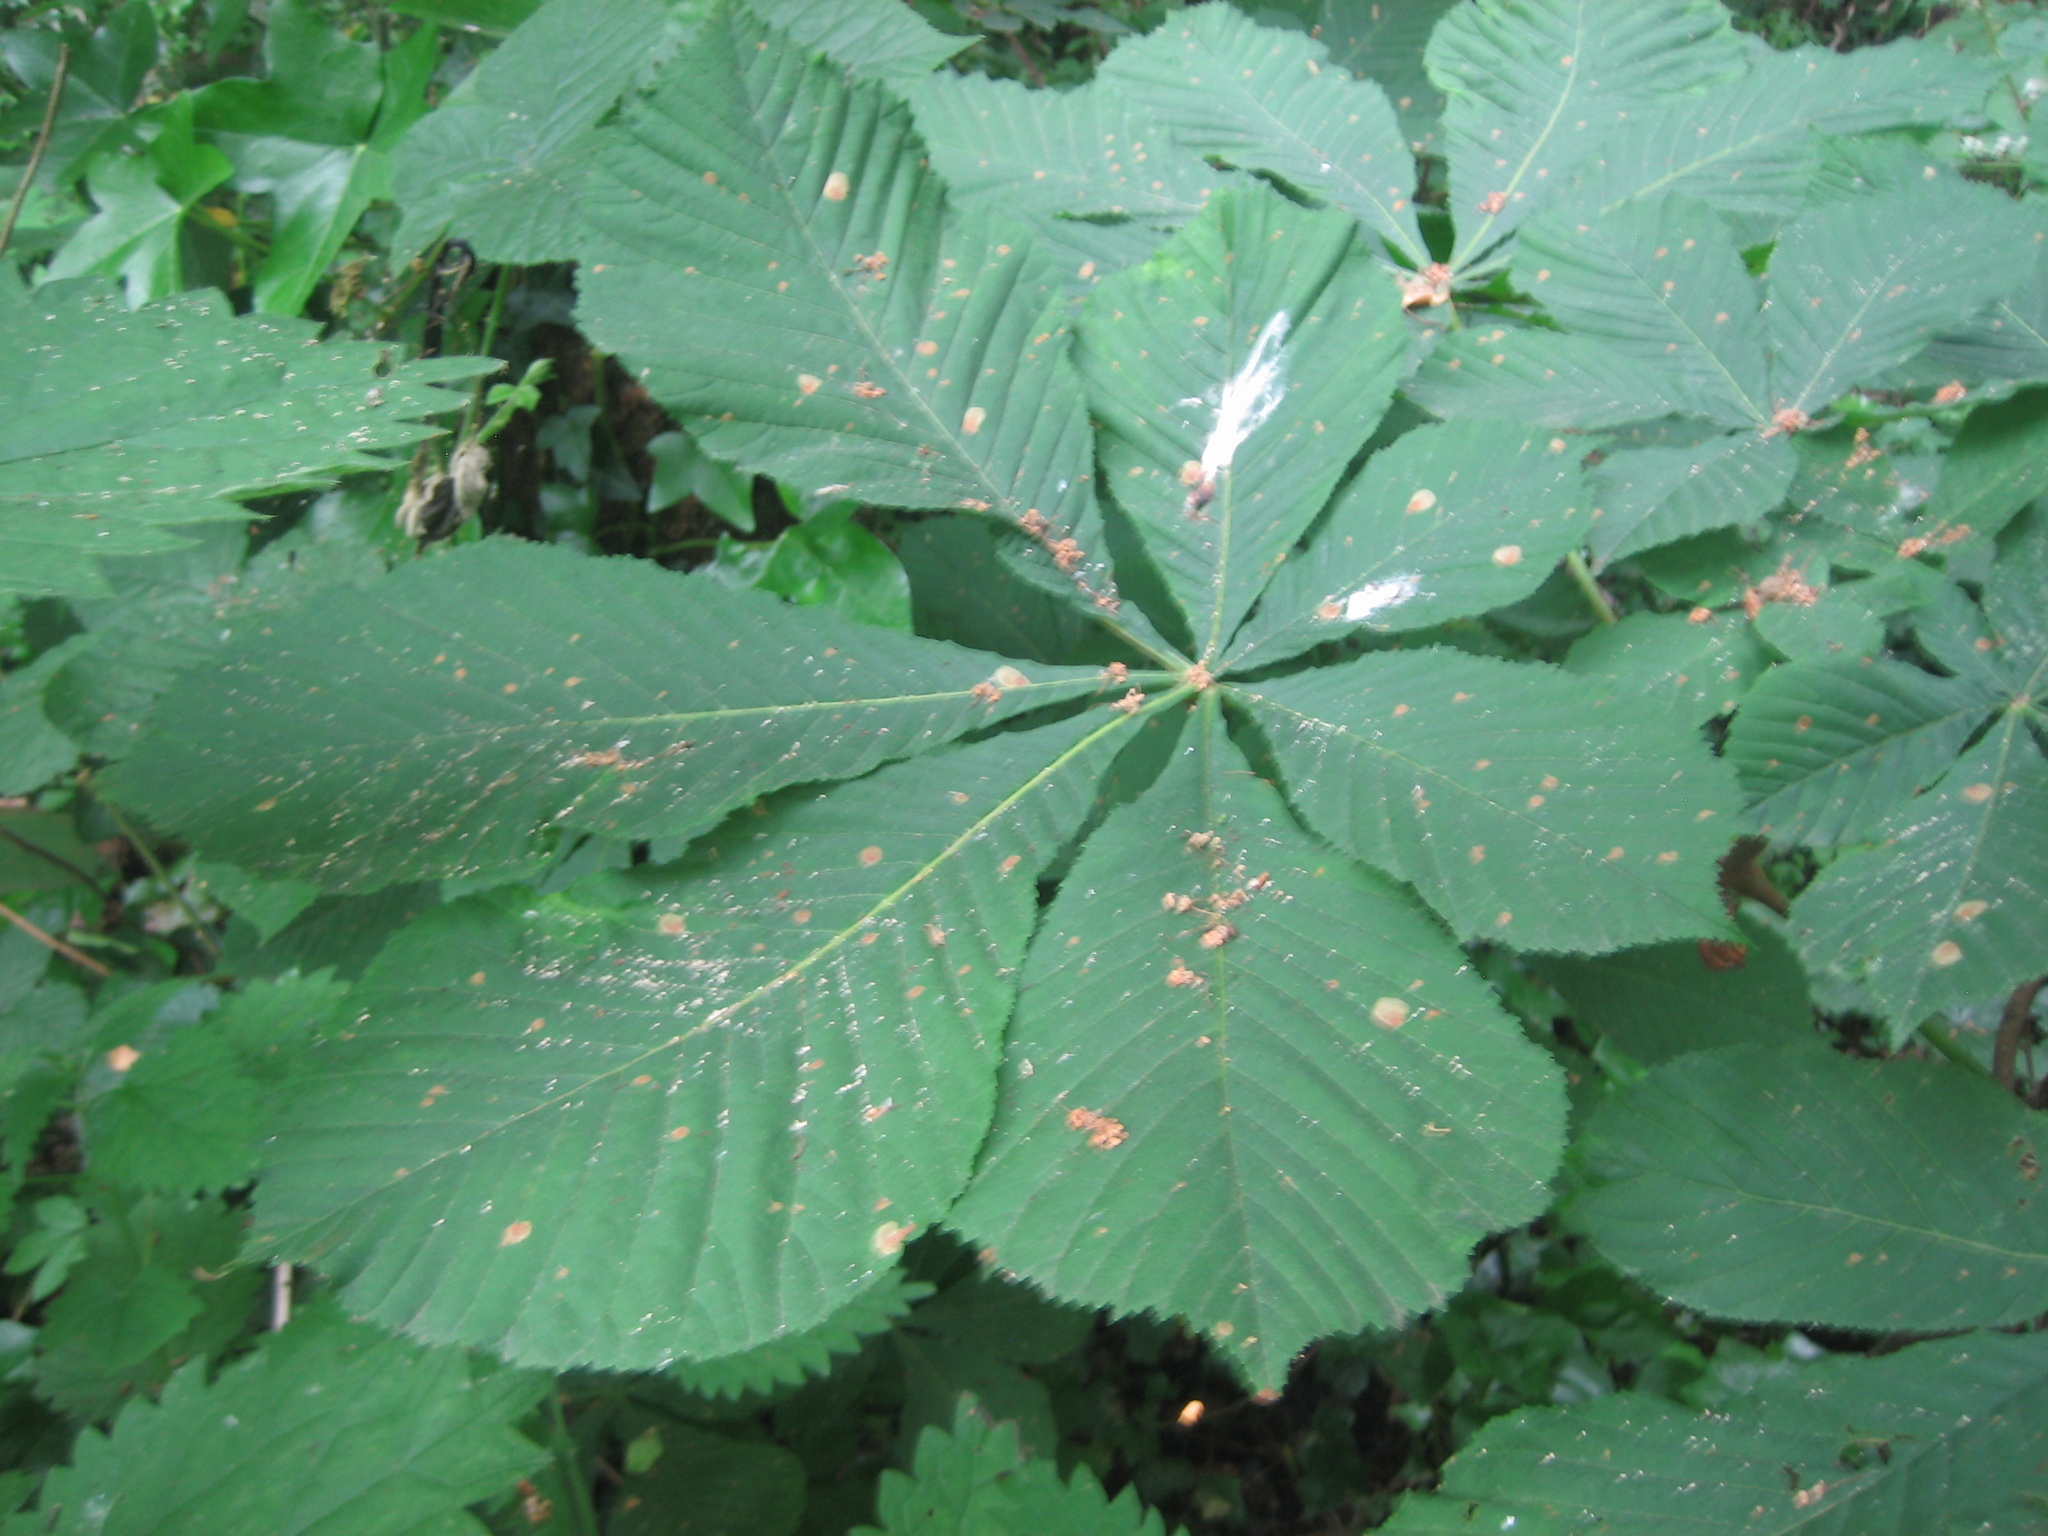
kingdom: Plantae
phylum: Tracheophyta
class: Magnoliopsida
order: Sapindales
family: Sapindaceae
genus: Aesculus
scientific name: Aesculus hippocastanum
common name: Horse-chestnut
